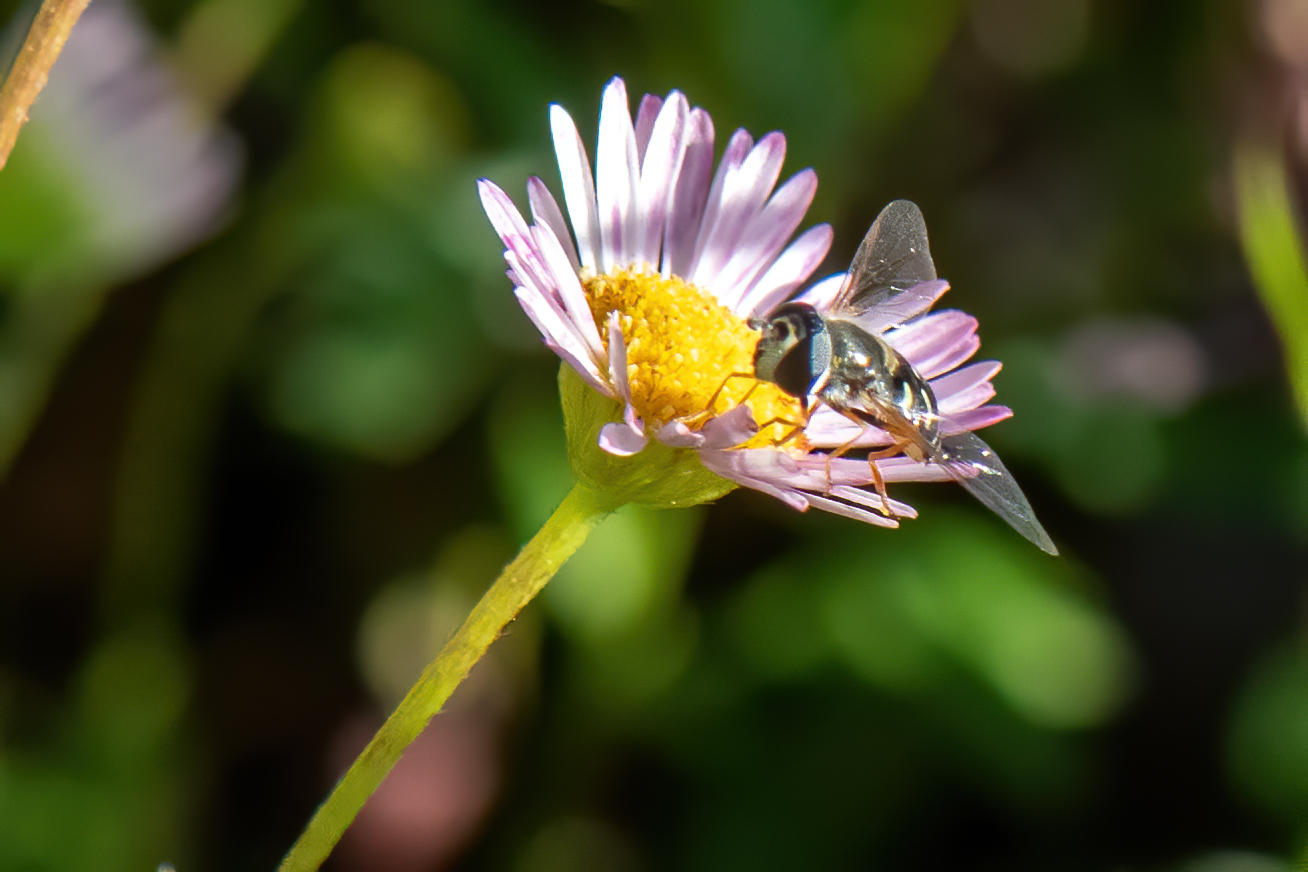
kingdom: Animalia
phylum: Arthropoda
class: Insecta
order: Diptera
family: Syrphidae
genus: Eupeodes
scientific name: Eupeodes volucris
